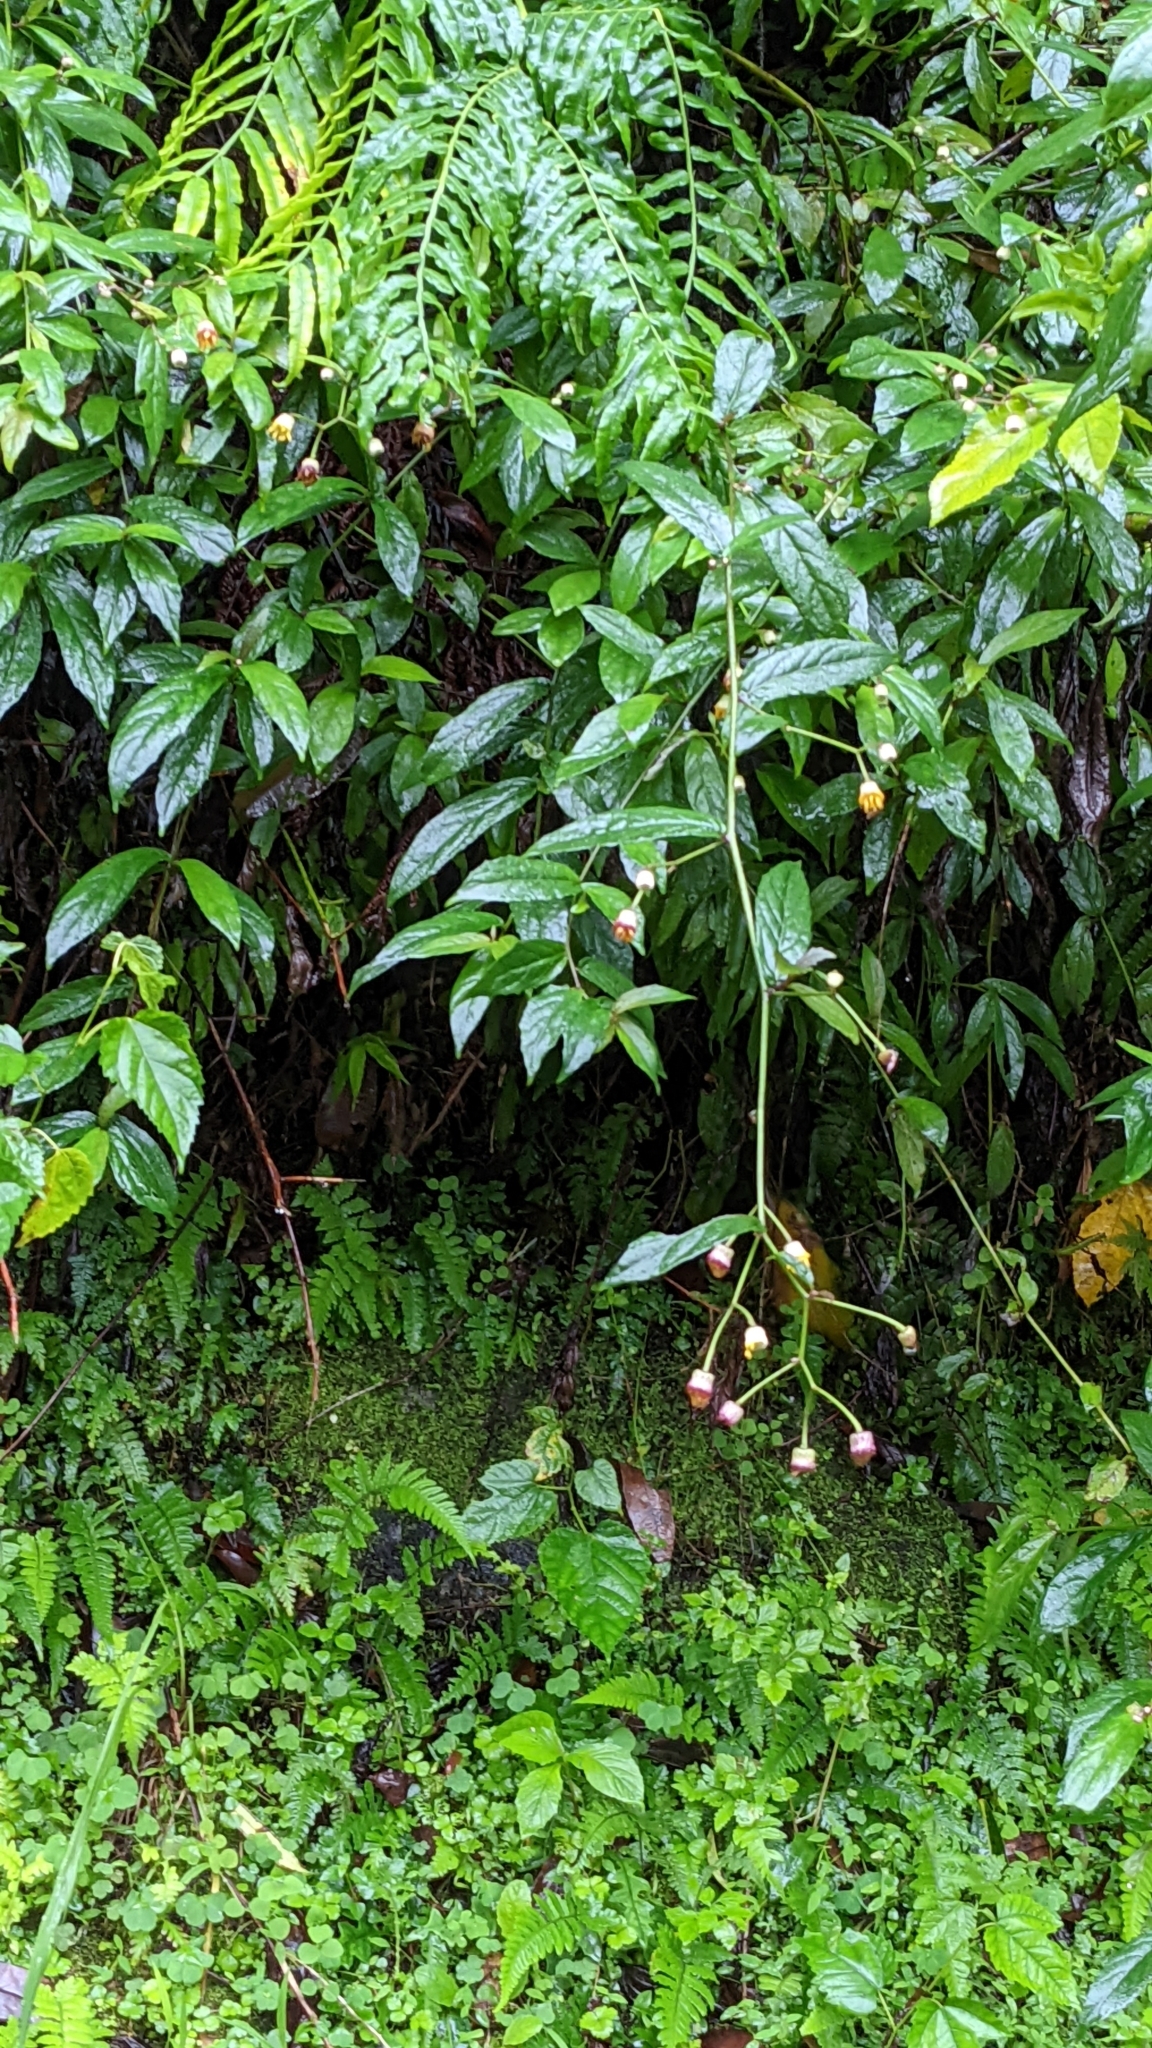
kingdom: Plantae
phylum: Tracheophyta
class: Magnoliopsida
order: Asterales
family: Asteraceae
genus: Blumea
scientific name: Blumea megacephala
